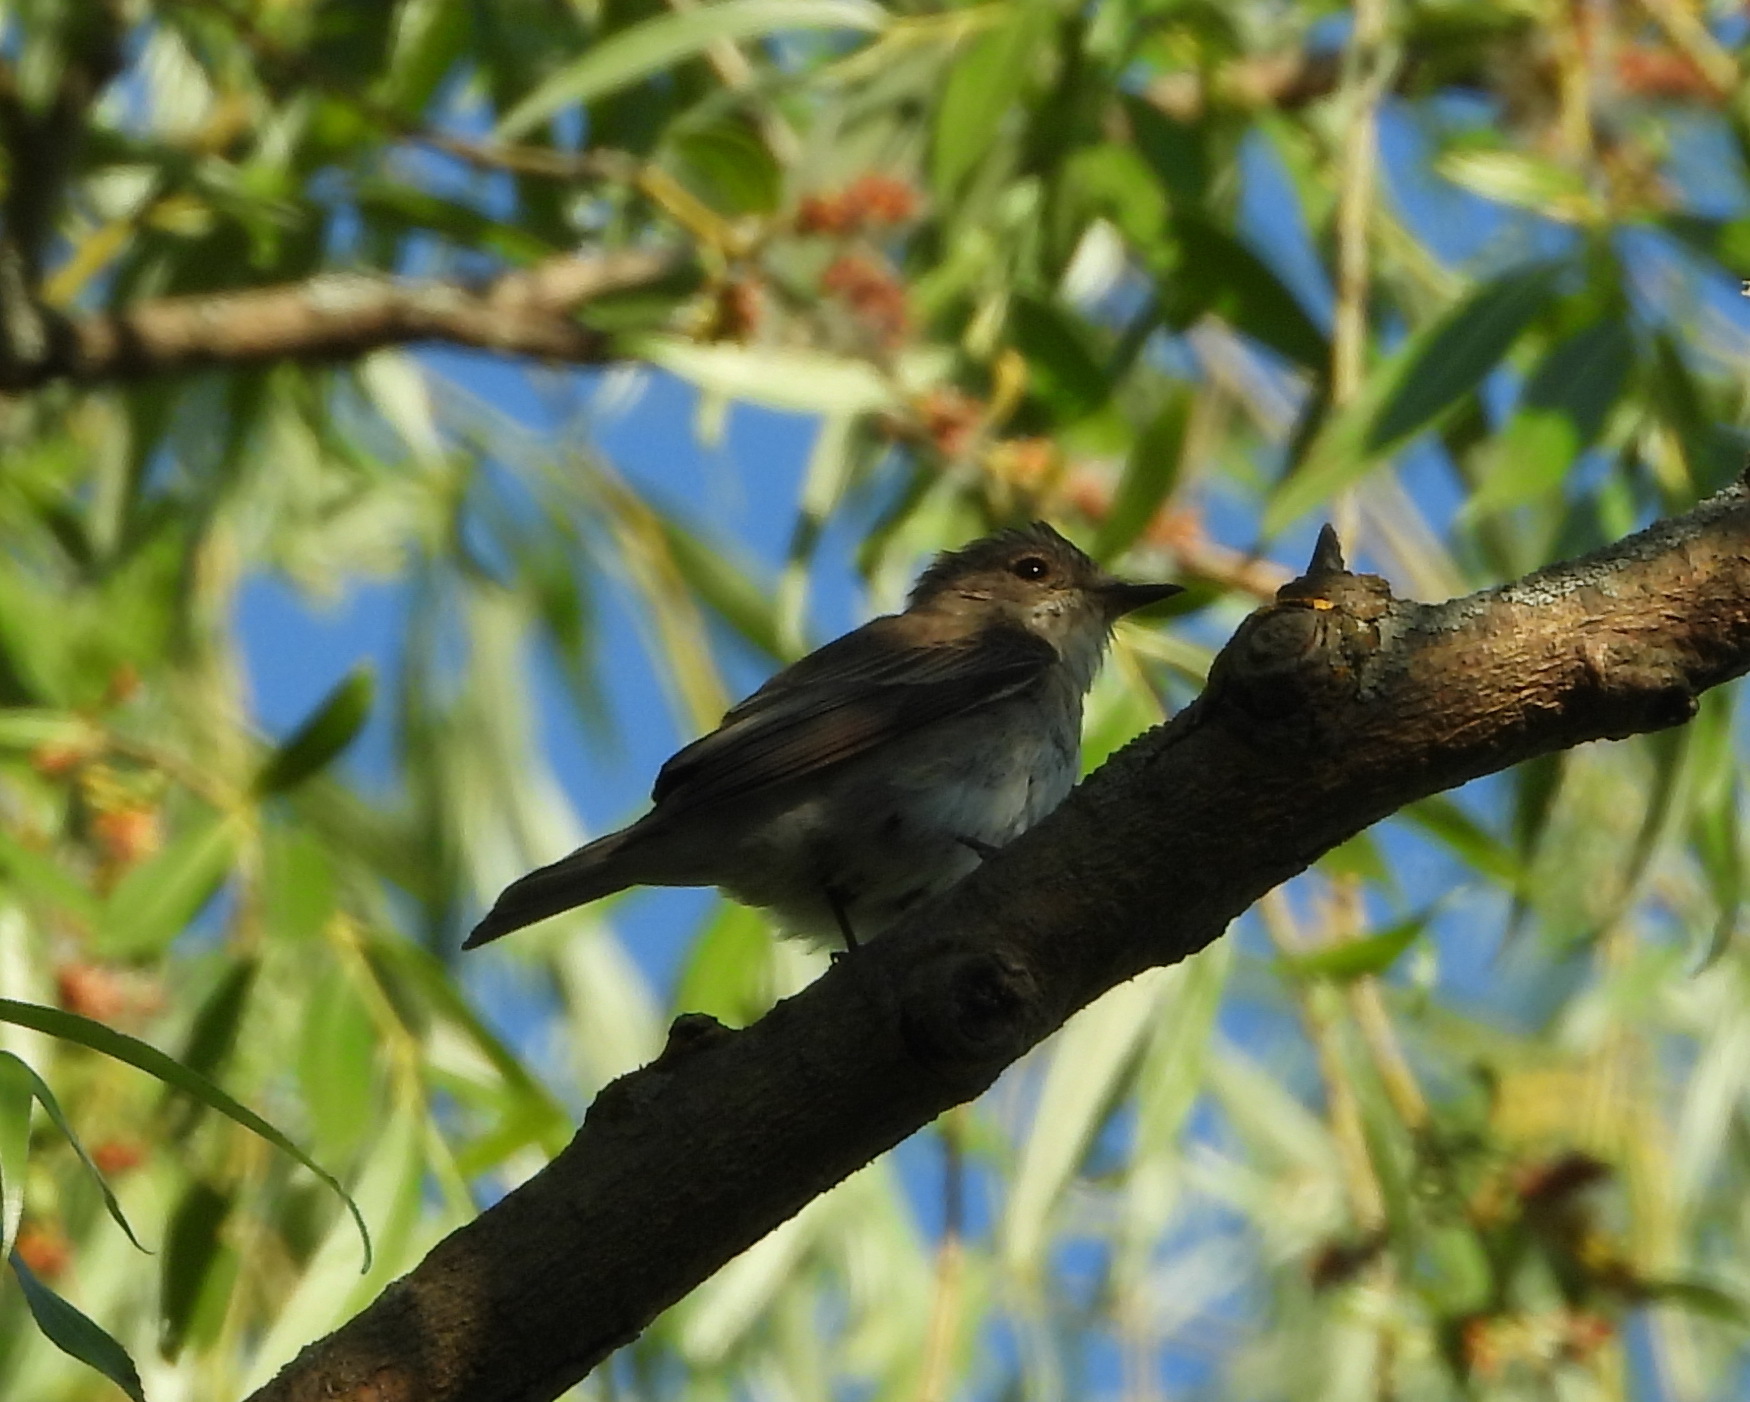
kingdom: Animalia
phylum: Chordata
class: Aves
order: Passeriformes
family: Muscicapidae
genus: Muscicapa
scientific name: Muscicapa striata
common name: Spotted flycatcher
